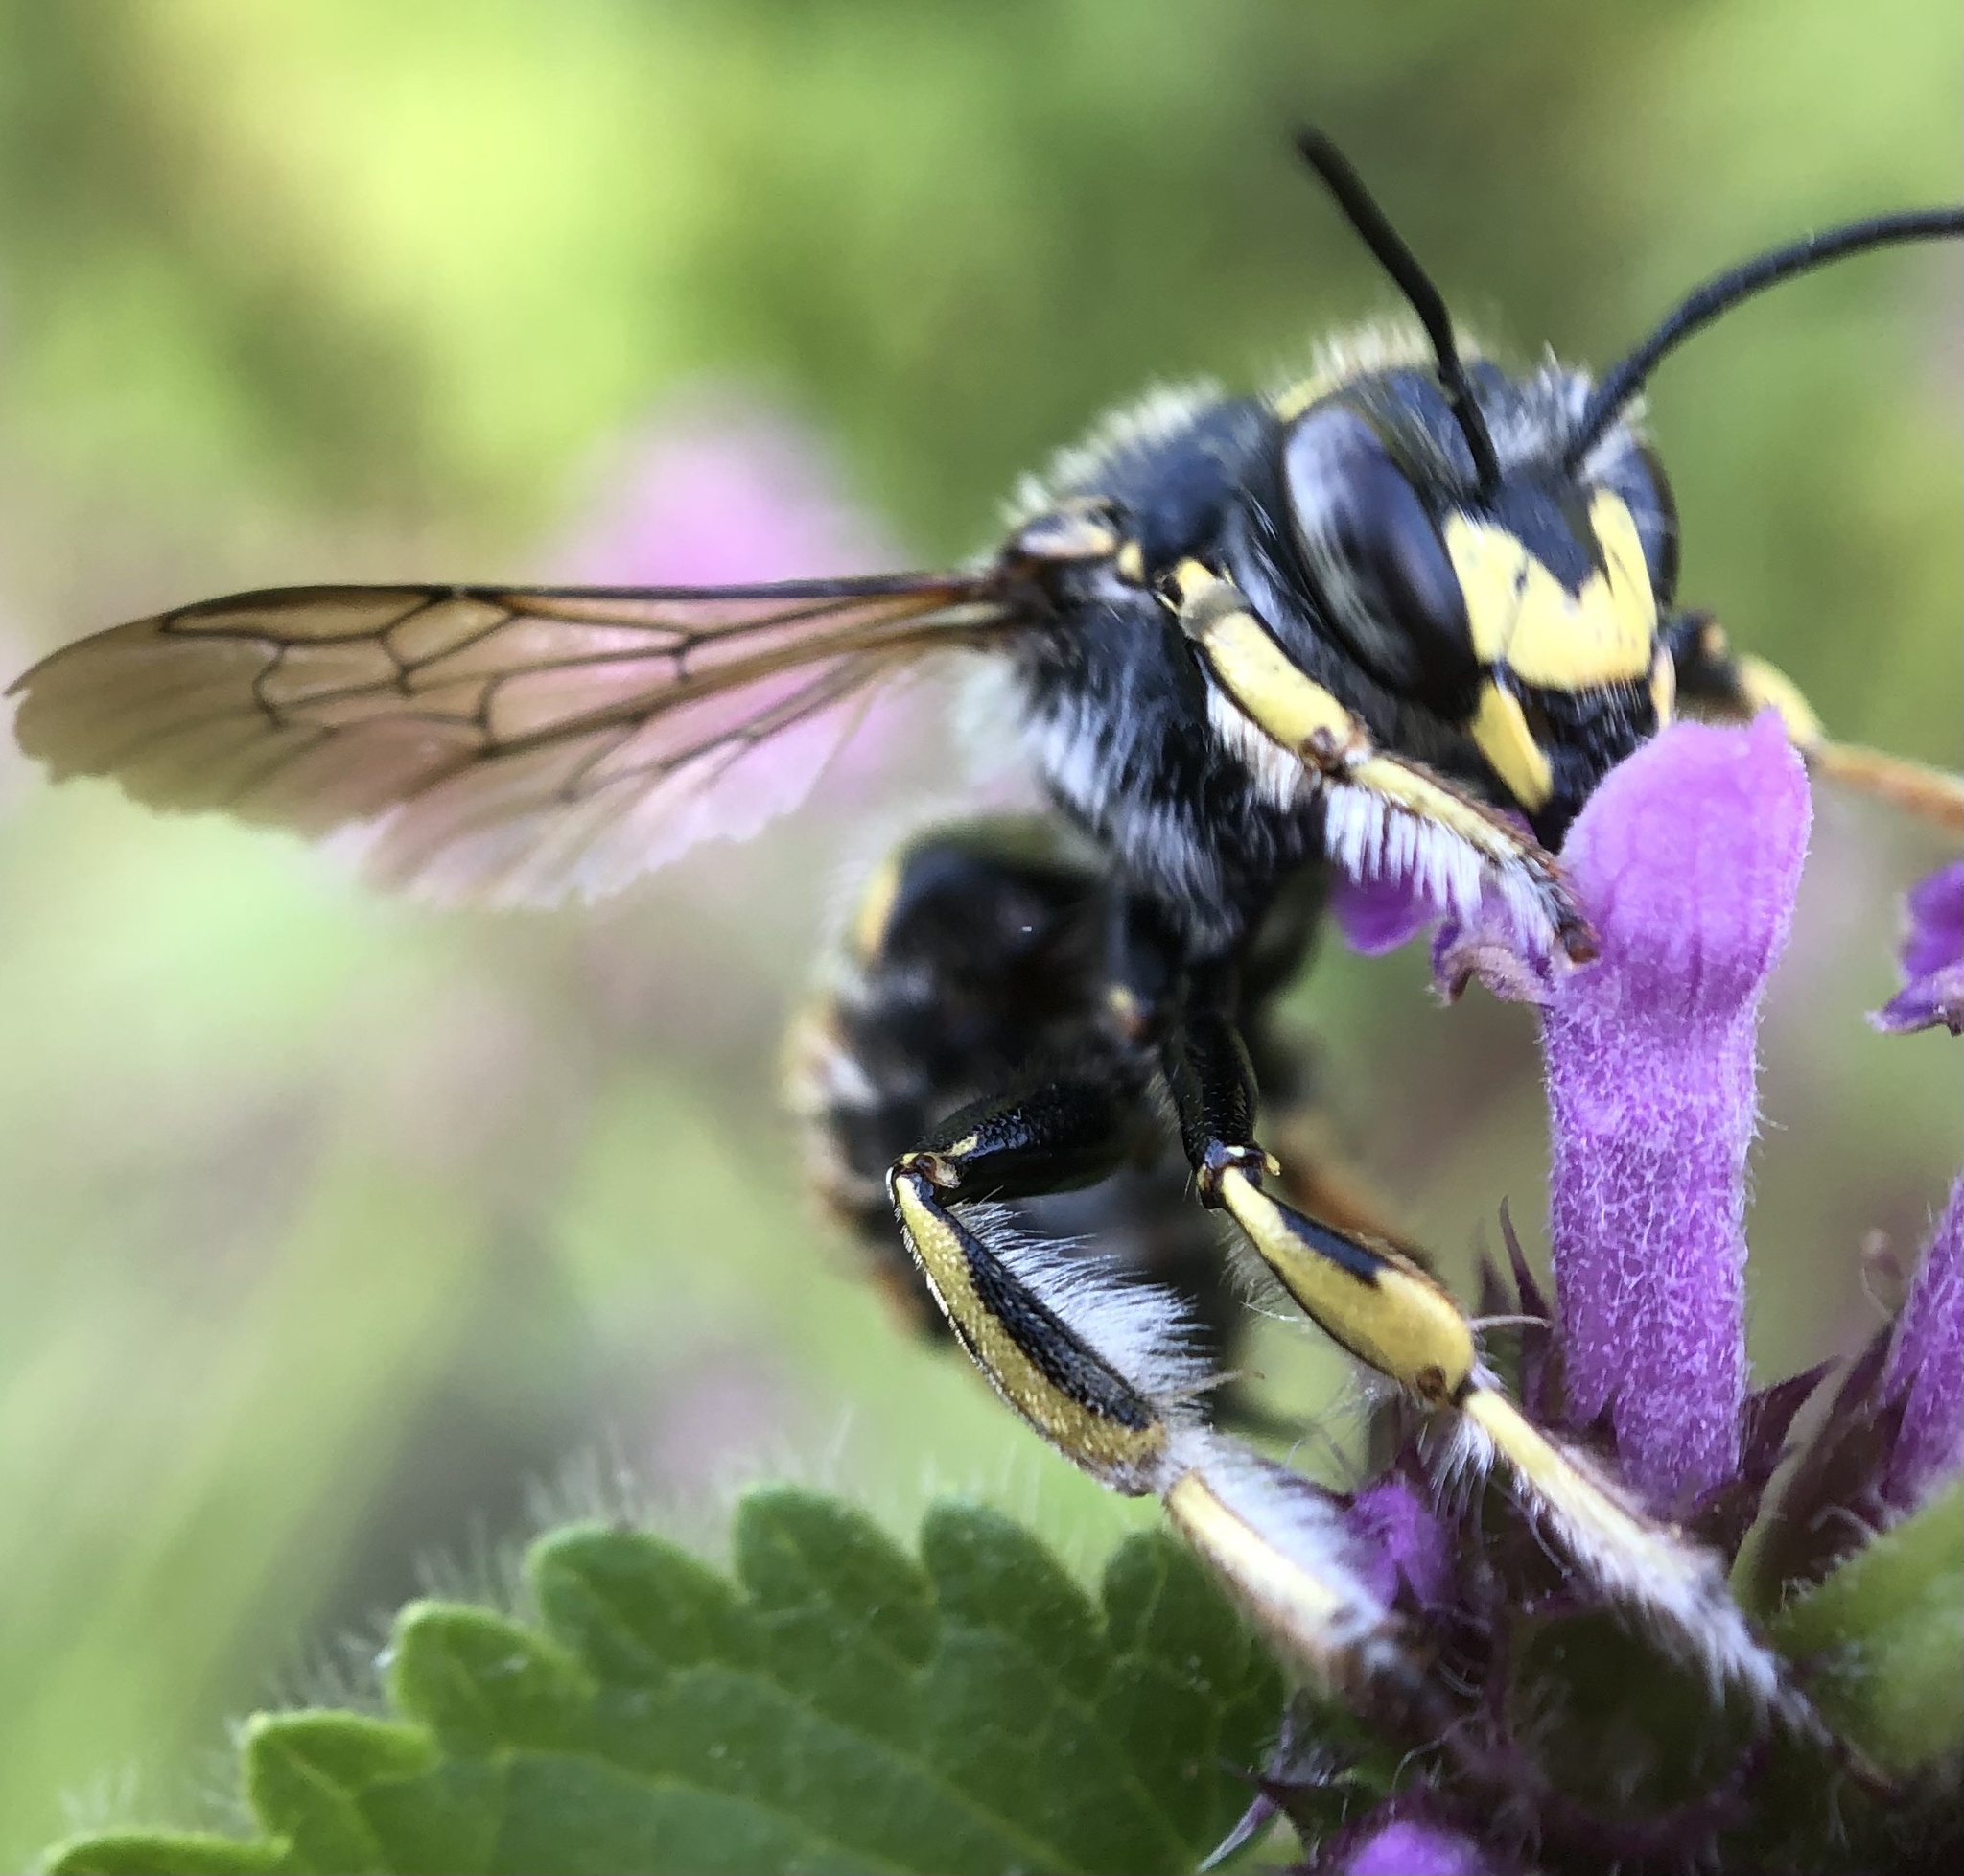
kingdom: Animalia
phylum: Arthropoda
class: Insecta
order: Hymenoptera
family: Megachilidae
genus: Anthidium
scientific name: Anthidium manicatum
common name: Wool carder bee
